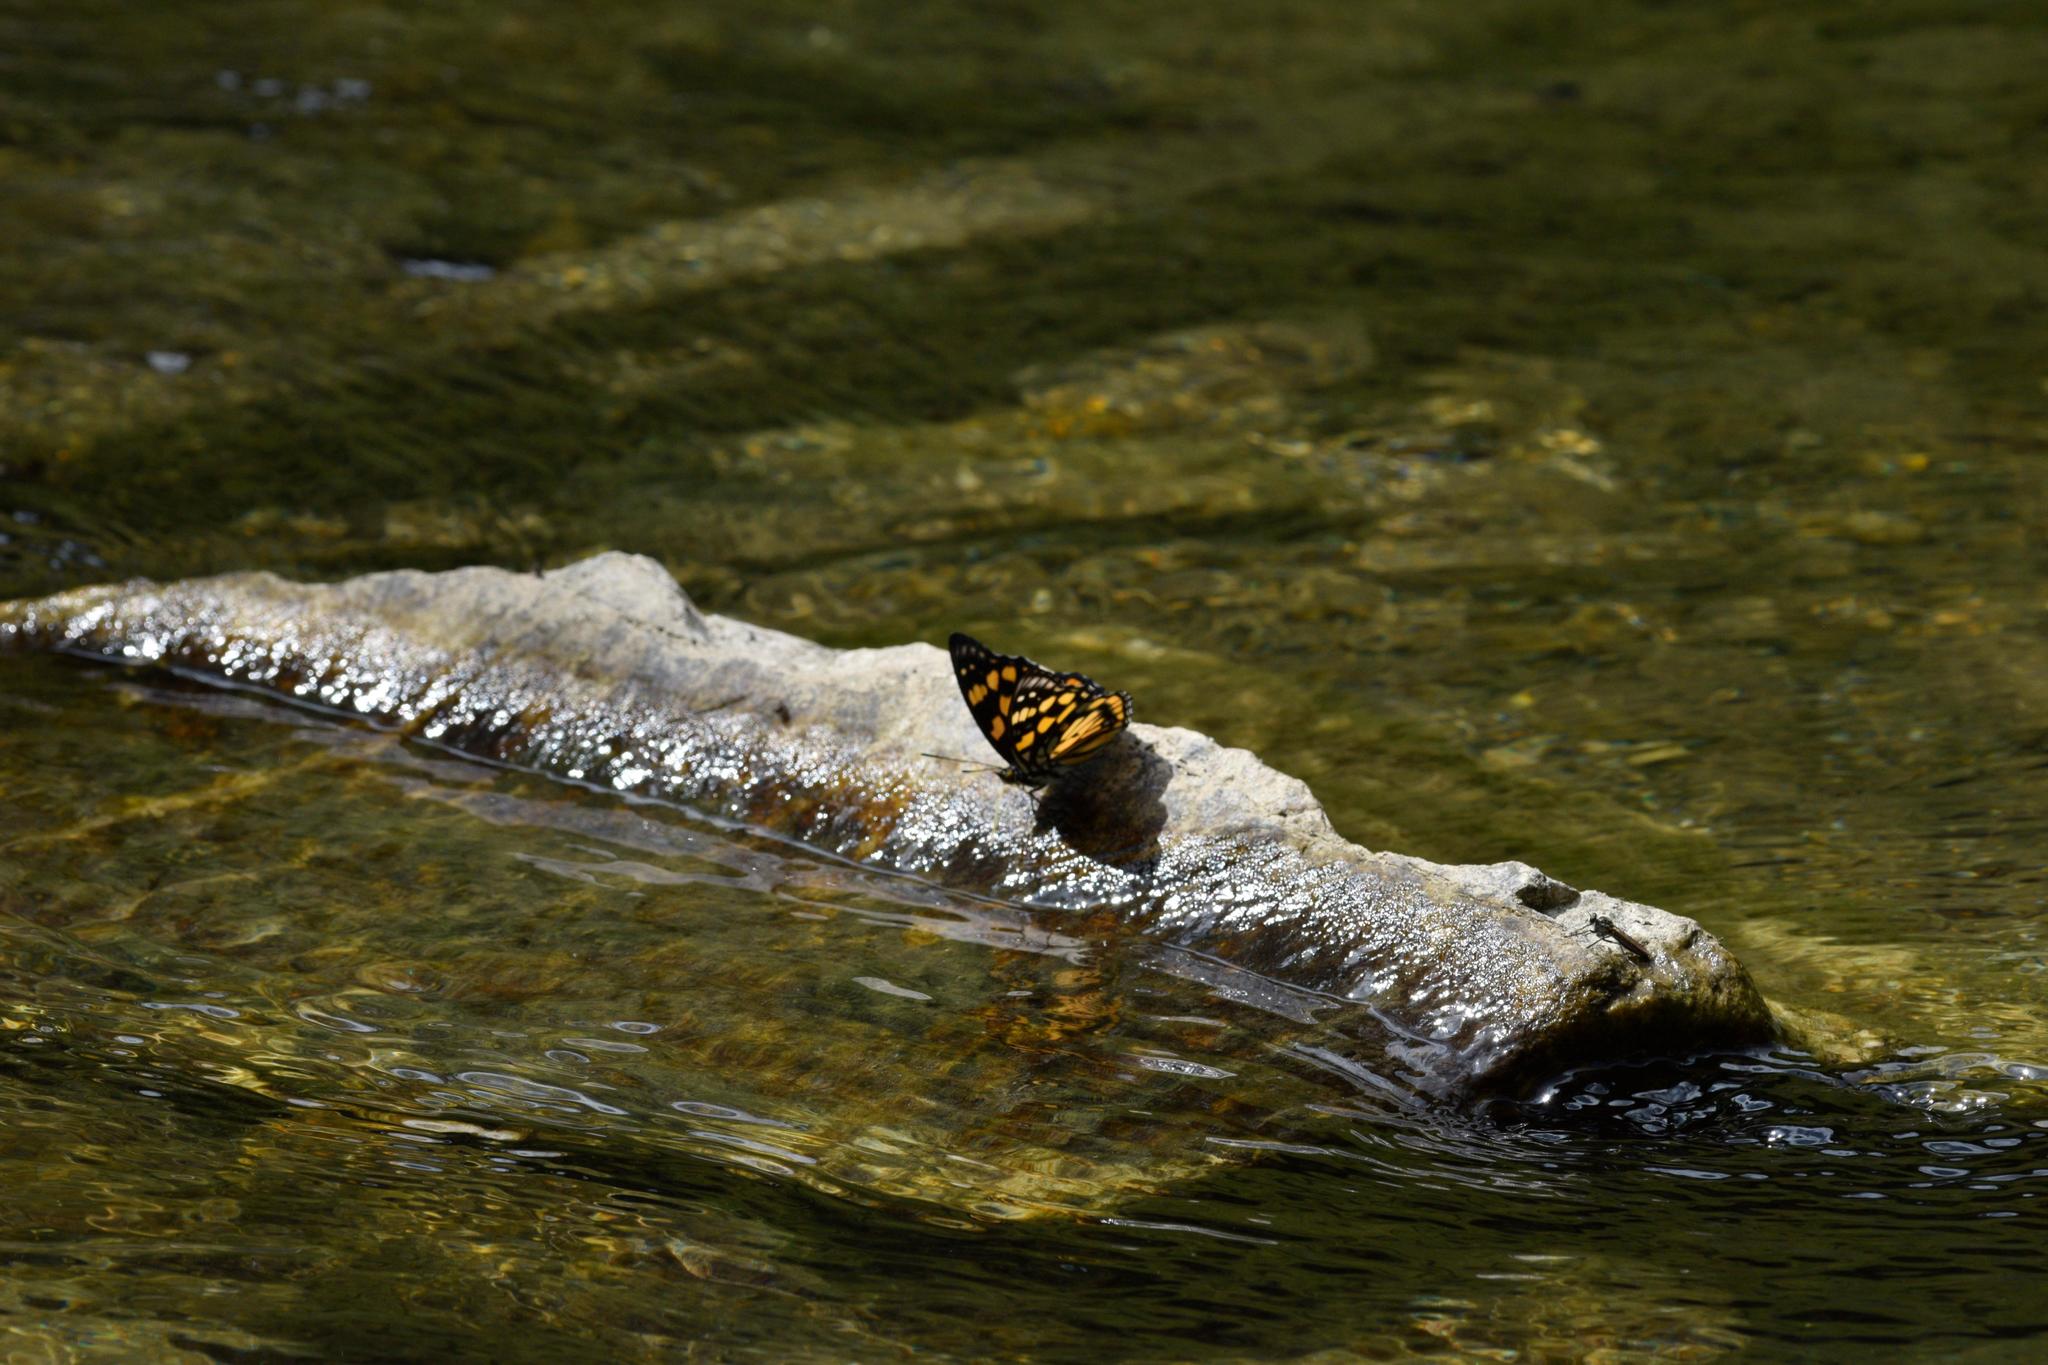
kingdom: Animalia
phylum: Arthropoda
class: Insecta
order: Lepidoptera
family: Nymphalidae
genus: Sephisa
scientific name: Sephisa dichroa
